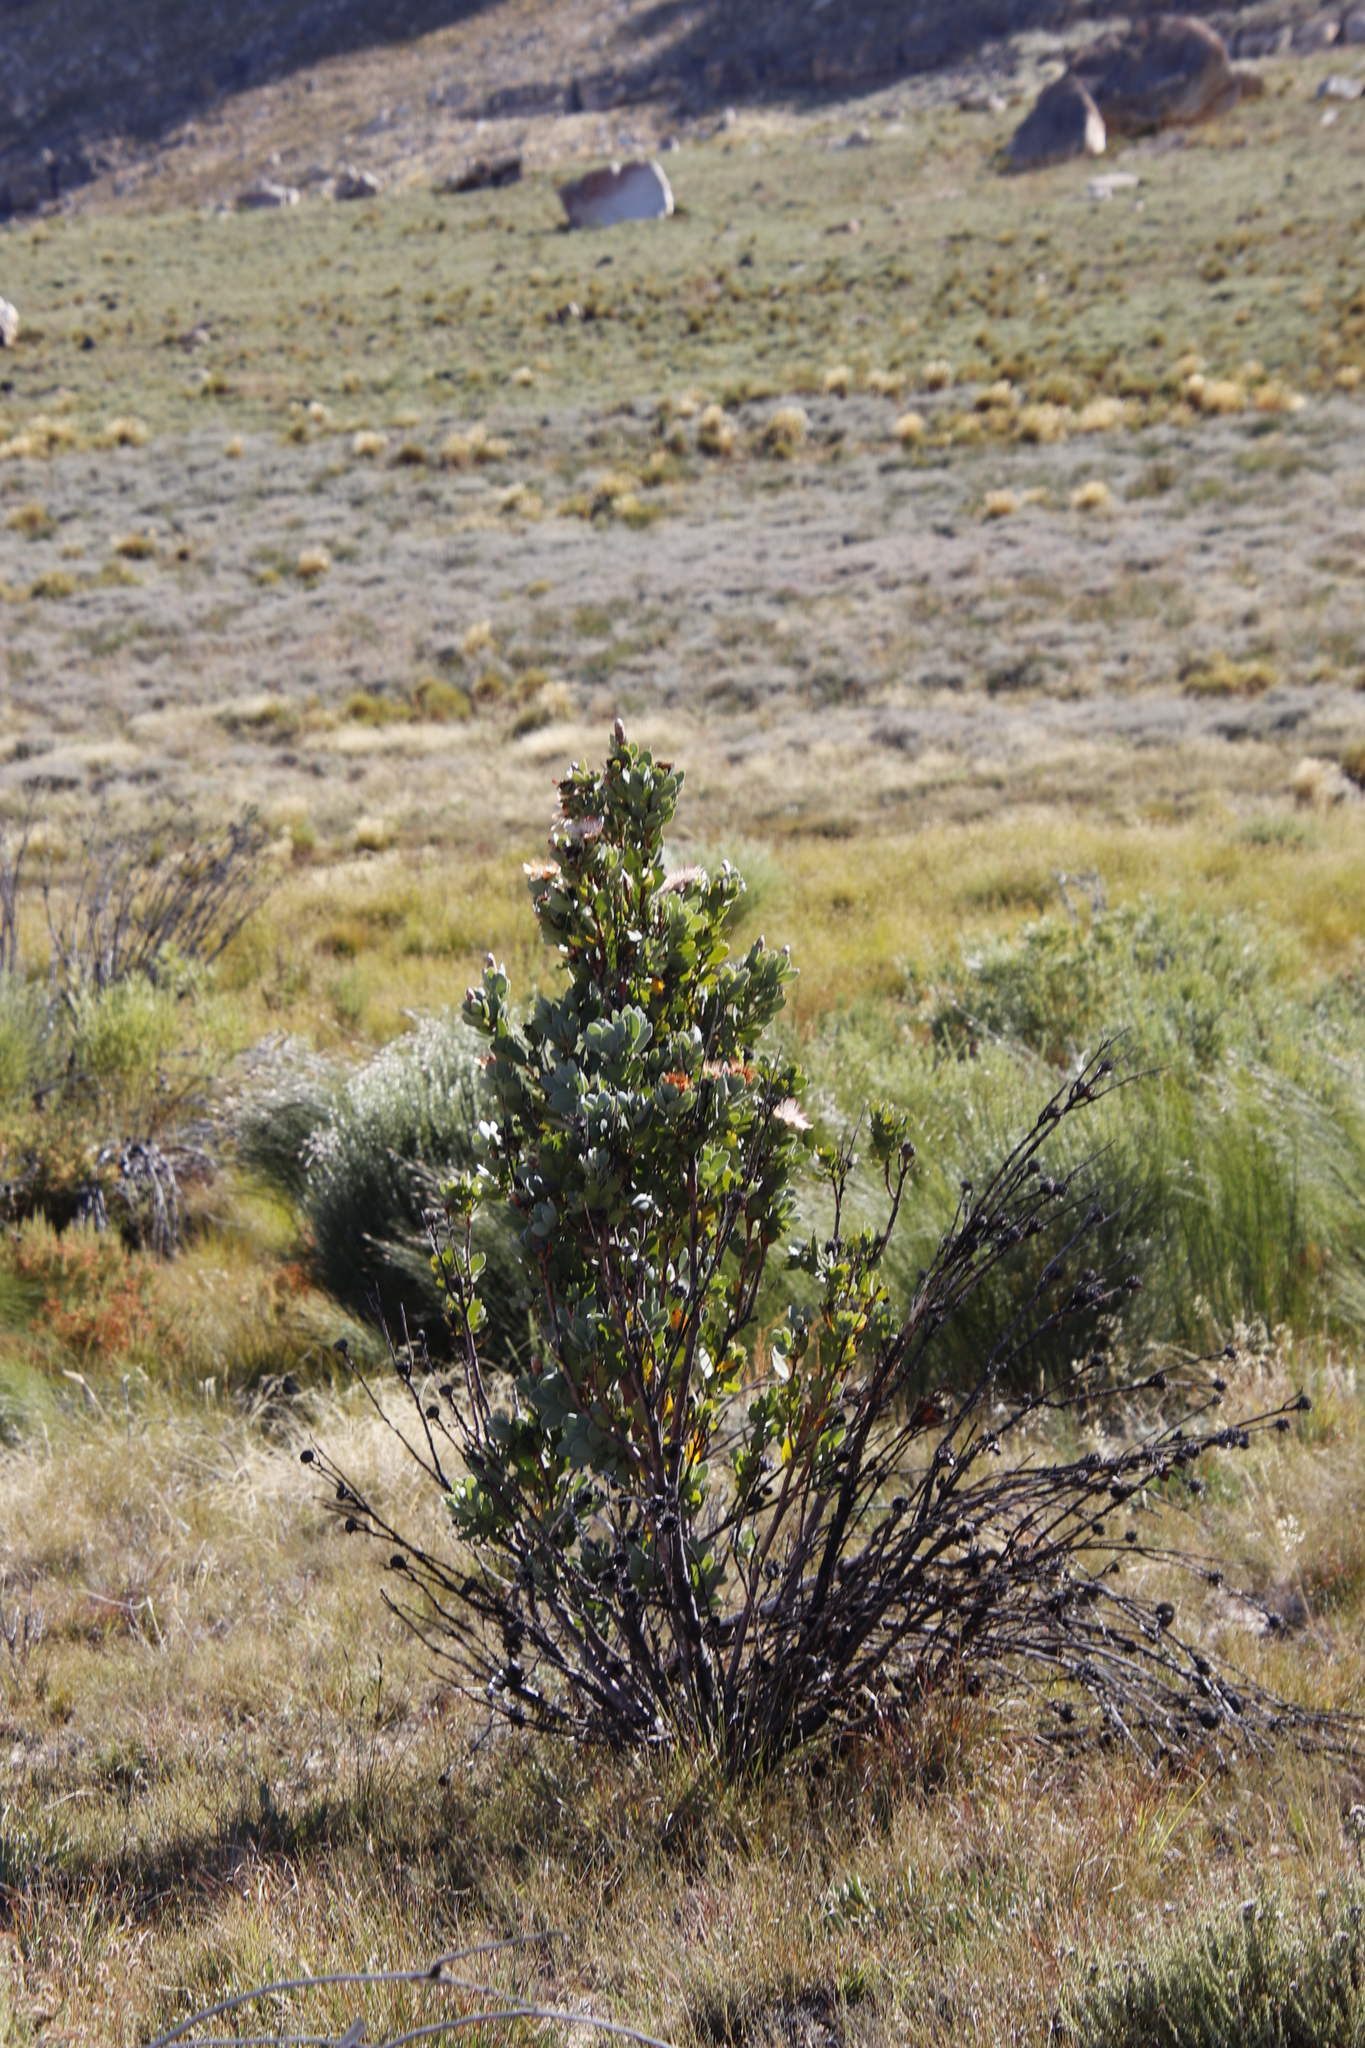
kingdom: Plantae
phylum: Tracheophyta
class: Magnoliopsida
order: Proteales
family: Proteaceae
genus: Protea
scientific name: Protea punctata
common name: Water sugarbush
